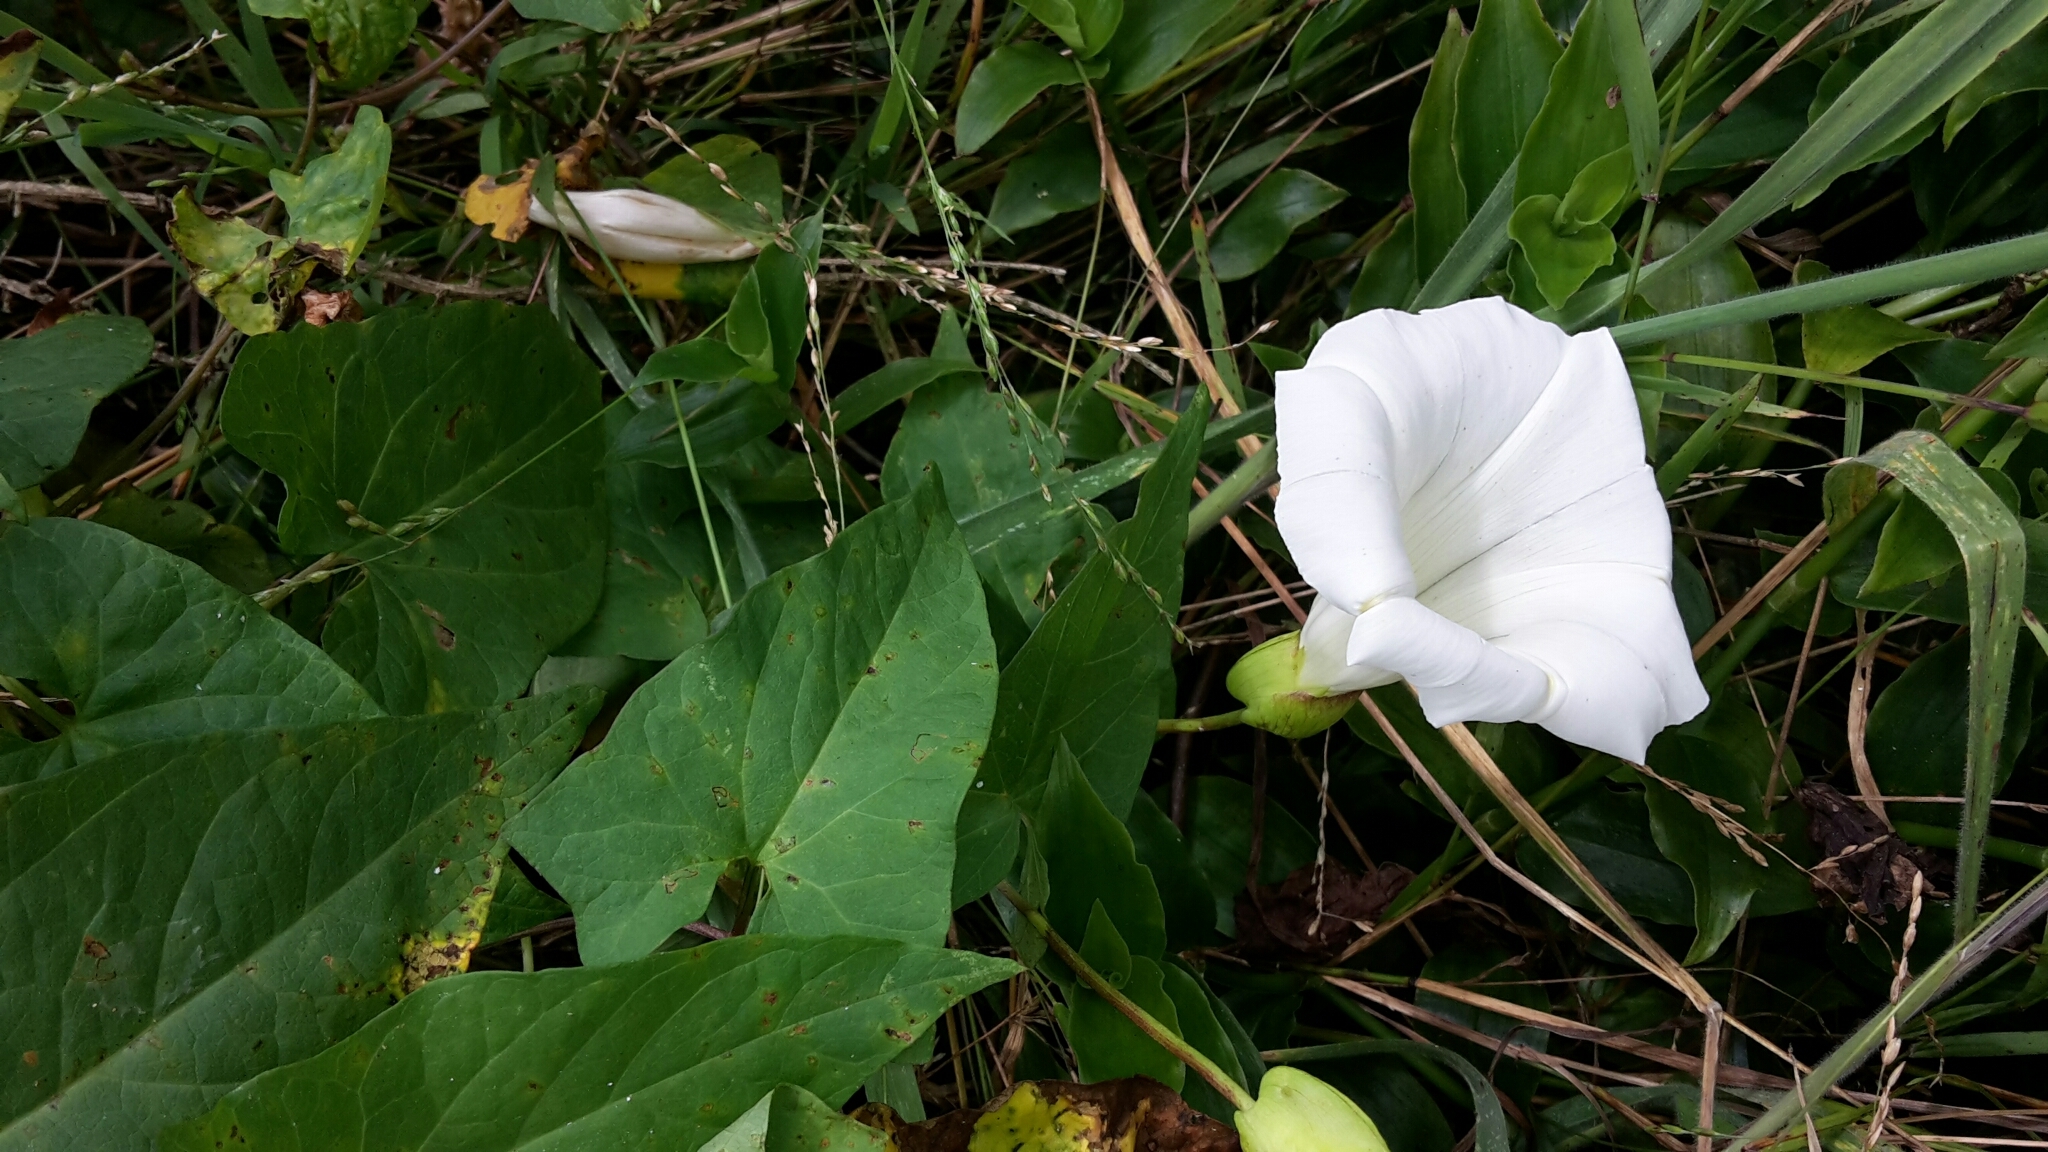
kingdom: Plantae
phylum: Tracheophyta
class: Magnoliopsida
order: Solanales
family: Convolvulaceae
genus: Calystegia
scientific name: Calystegia silvatica
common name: Large bindweed
